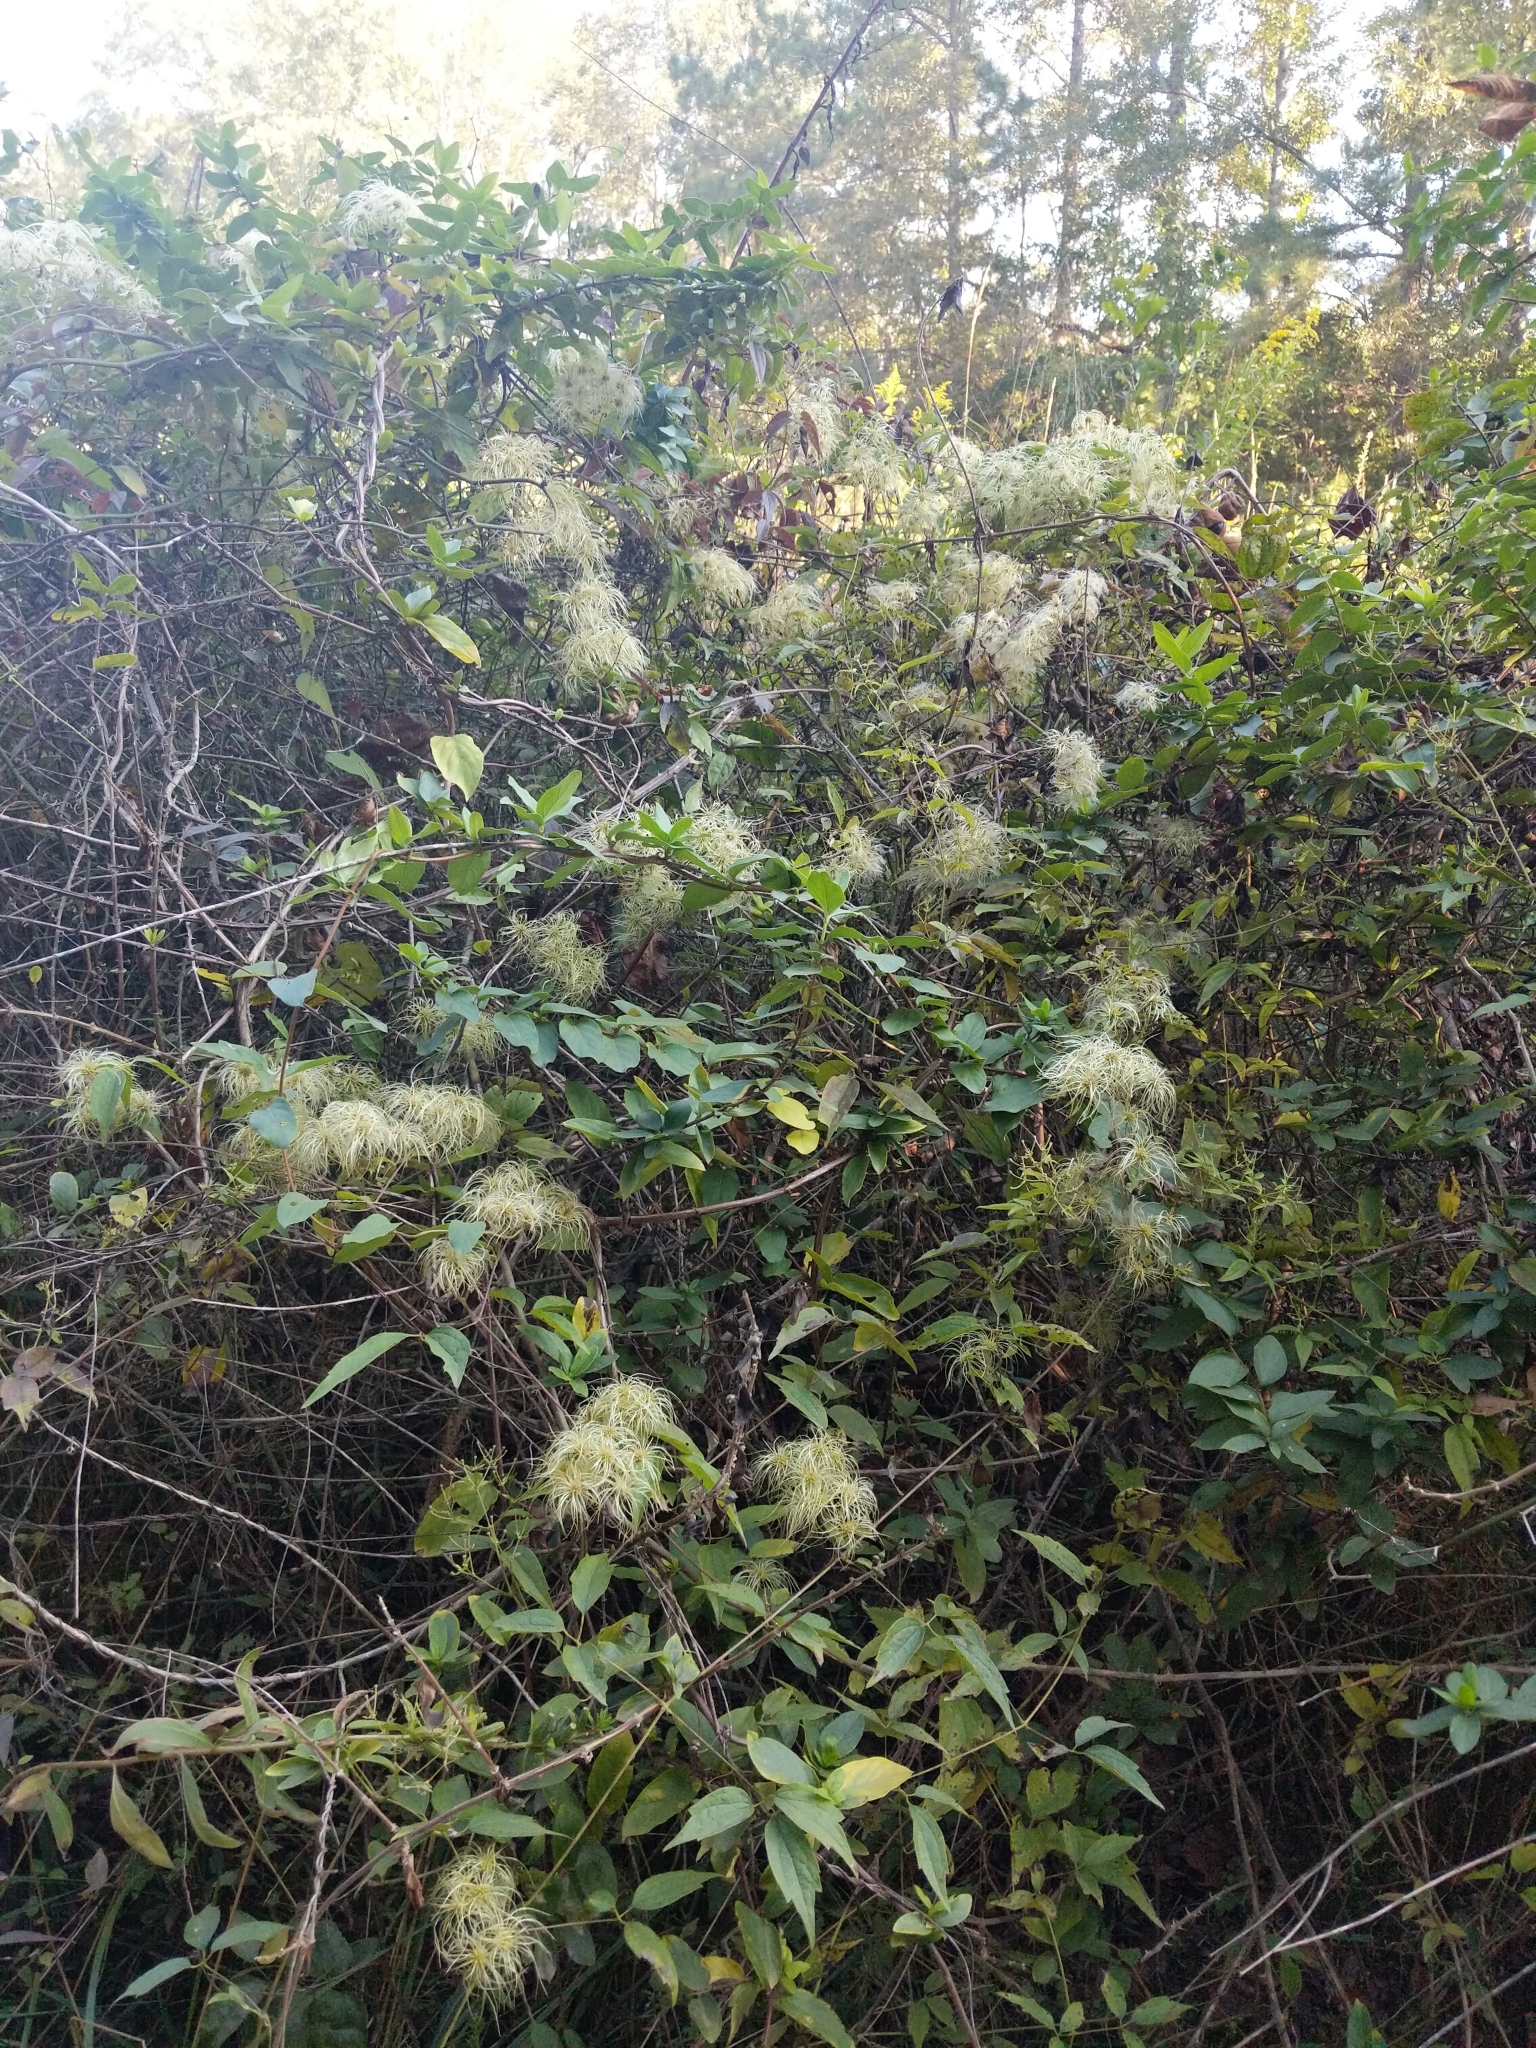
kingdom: Plantae
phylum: Tracheophyta
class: Magnoliopsida
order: Ranunculales
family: Ranunculaceae
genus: Clematis
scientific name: Clematis virginiana
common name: Virgin's-bower
